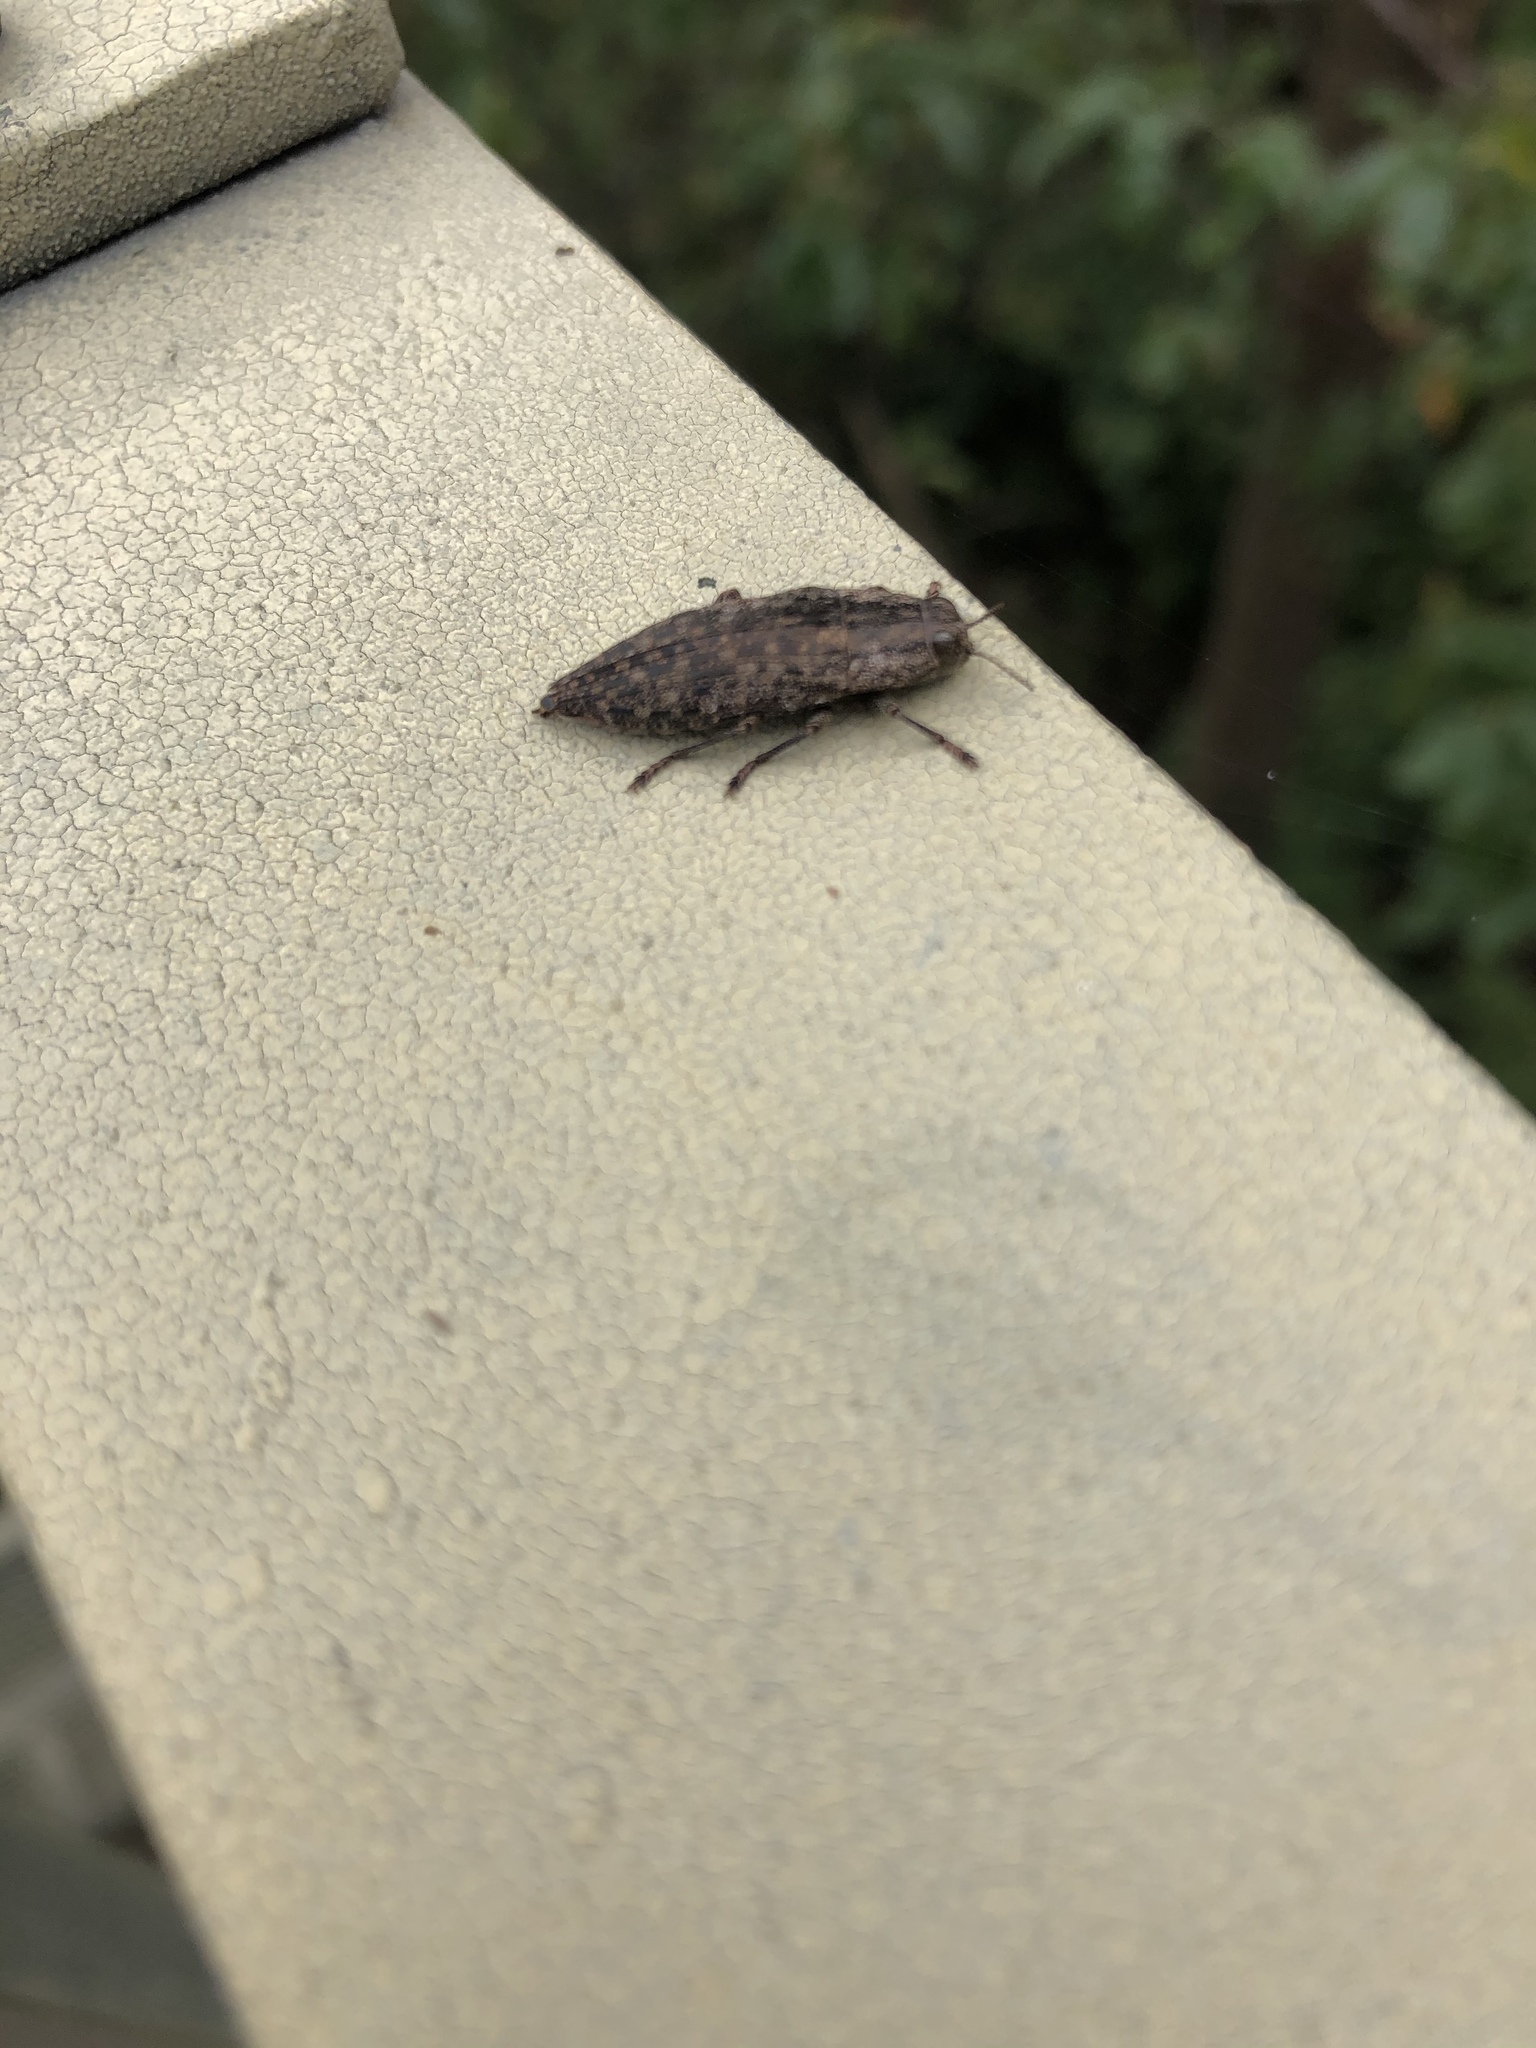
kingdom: Animalia
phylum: Arthropoda
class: Insecta
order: Coleoptera
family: Buprestidae
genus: Dicerca
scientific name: Dicerca obscura
